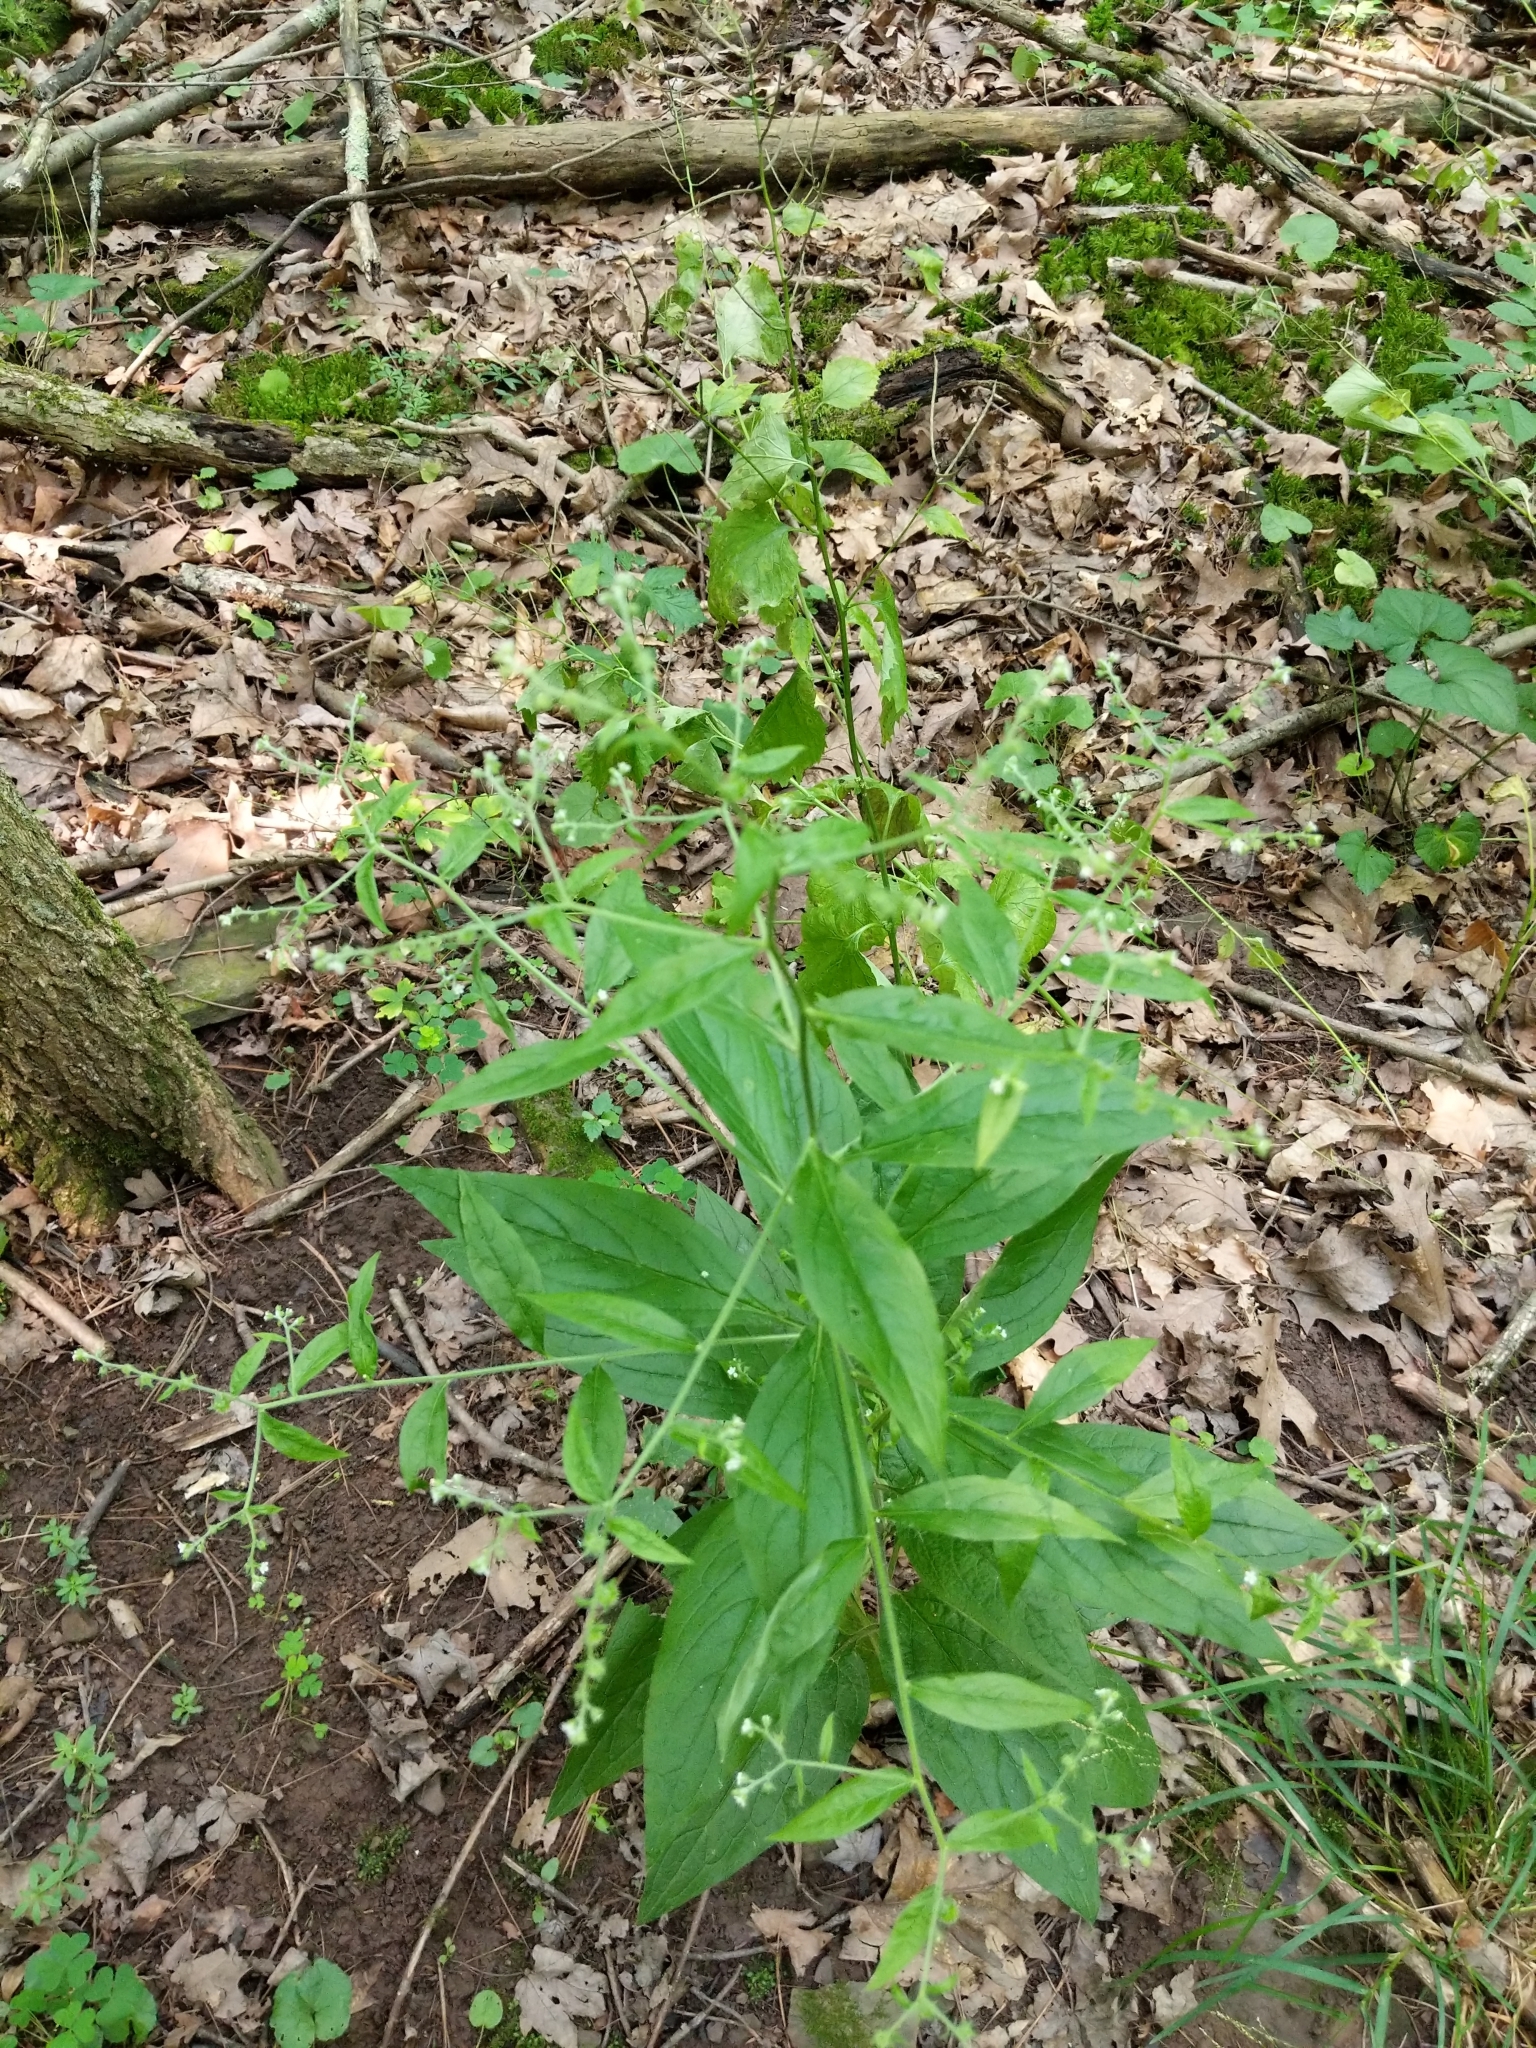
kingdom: Plantae
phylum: Tracheophyta
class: Magnoliopsida
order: Boraginales
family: Boraginaceae
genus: Hackelia
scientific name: Hackelia virginiana
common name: Beggar's-lice
